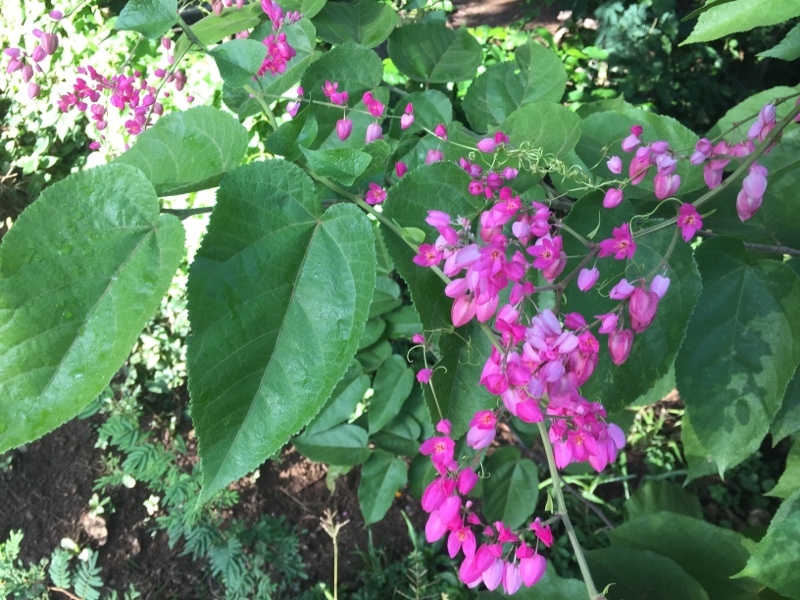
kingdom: Plantae
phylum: Tracheophyta
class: Magnoliopsida
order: Caryophyllales
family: Polygonaceae
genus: Antigonon
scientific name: Antigonon leptopus
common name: Coral vine
